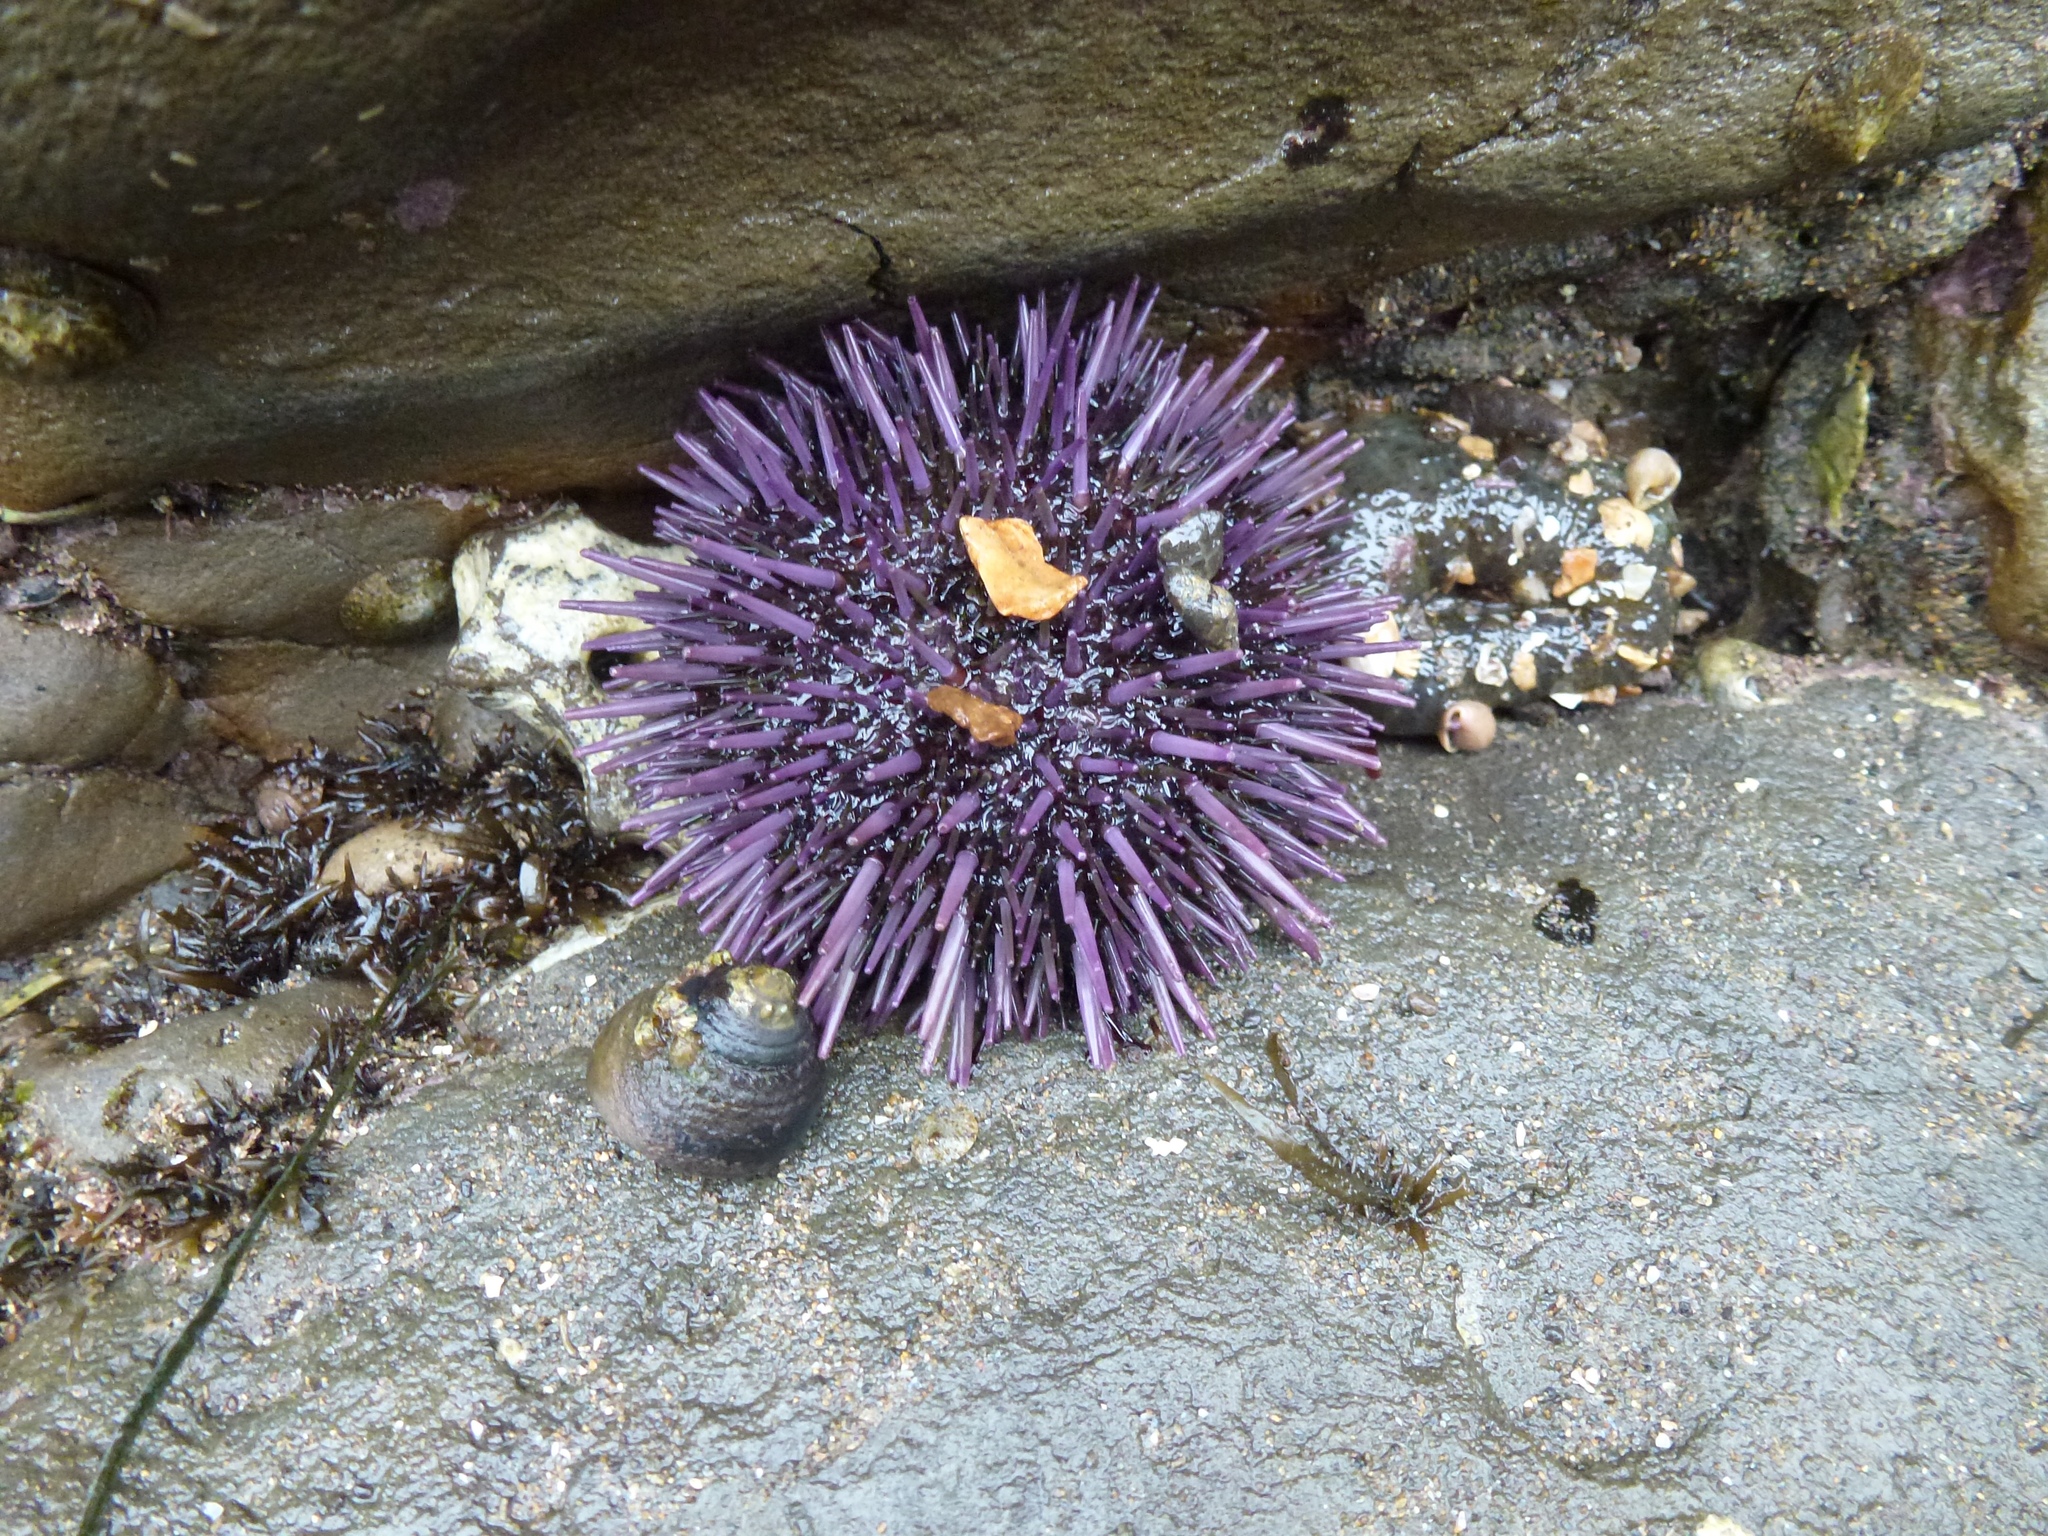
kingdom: Animalia
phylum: Echinodermata
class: Echinoidea
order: Camarodonta
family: Strongylocentrotidae
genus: Strongylocentrotus
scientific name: Strongylocentrotus purpuratus
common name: Purple sea urchin
